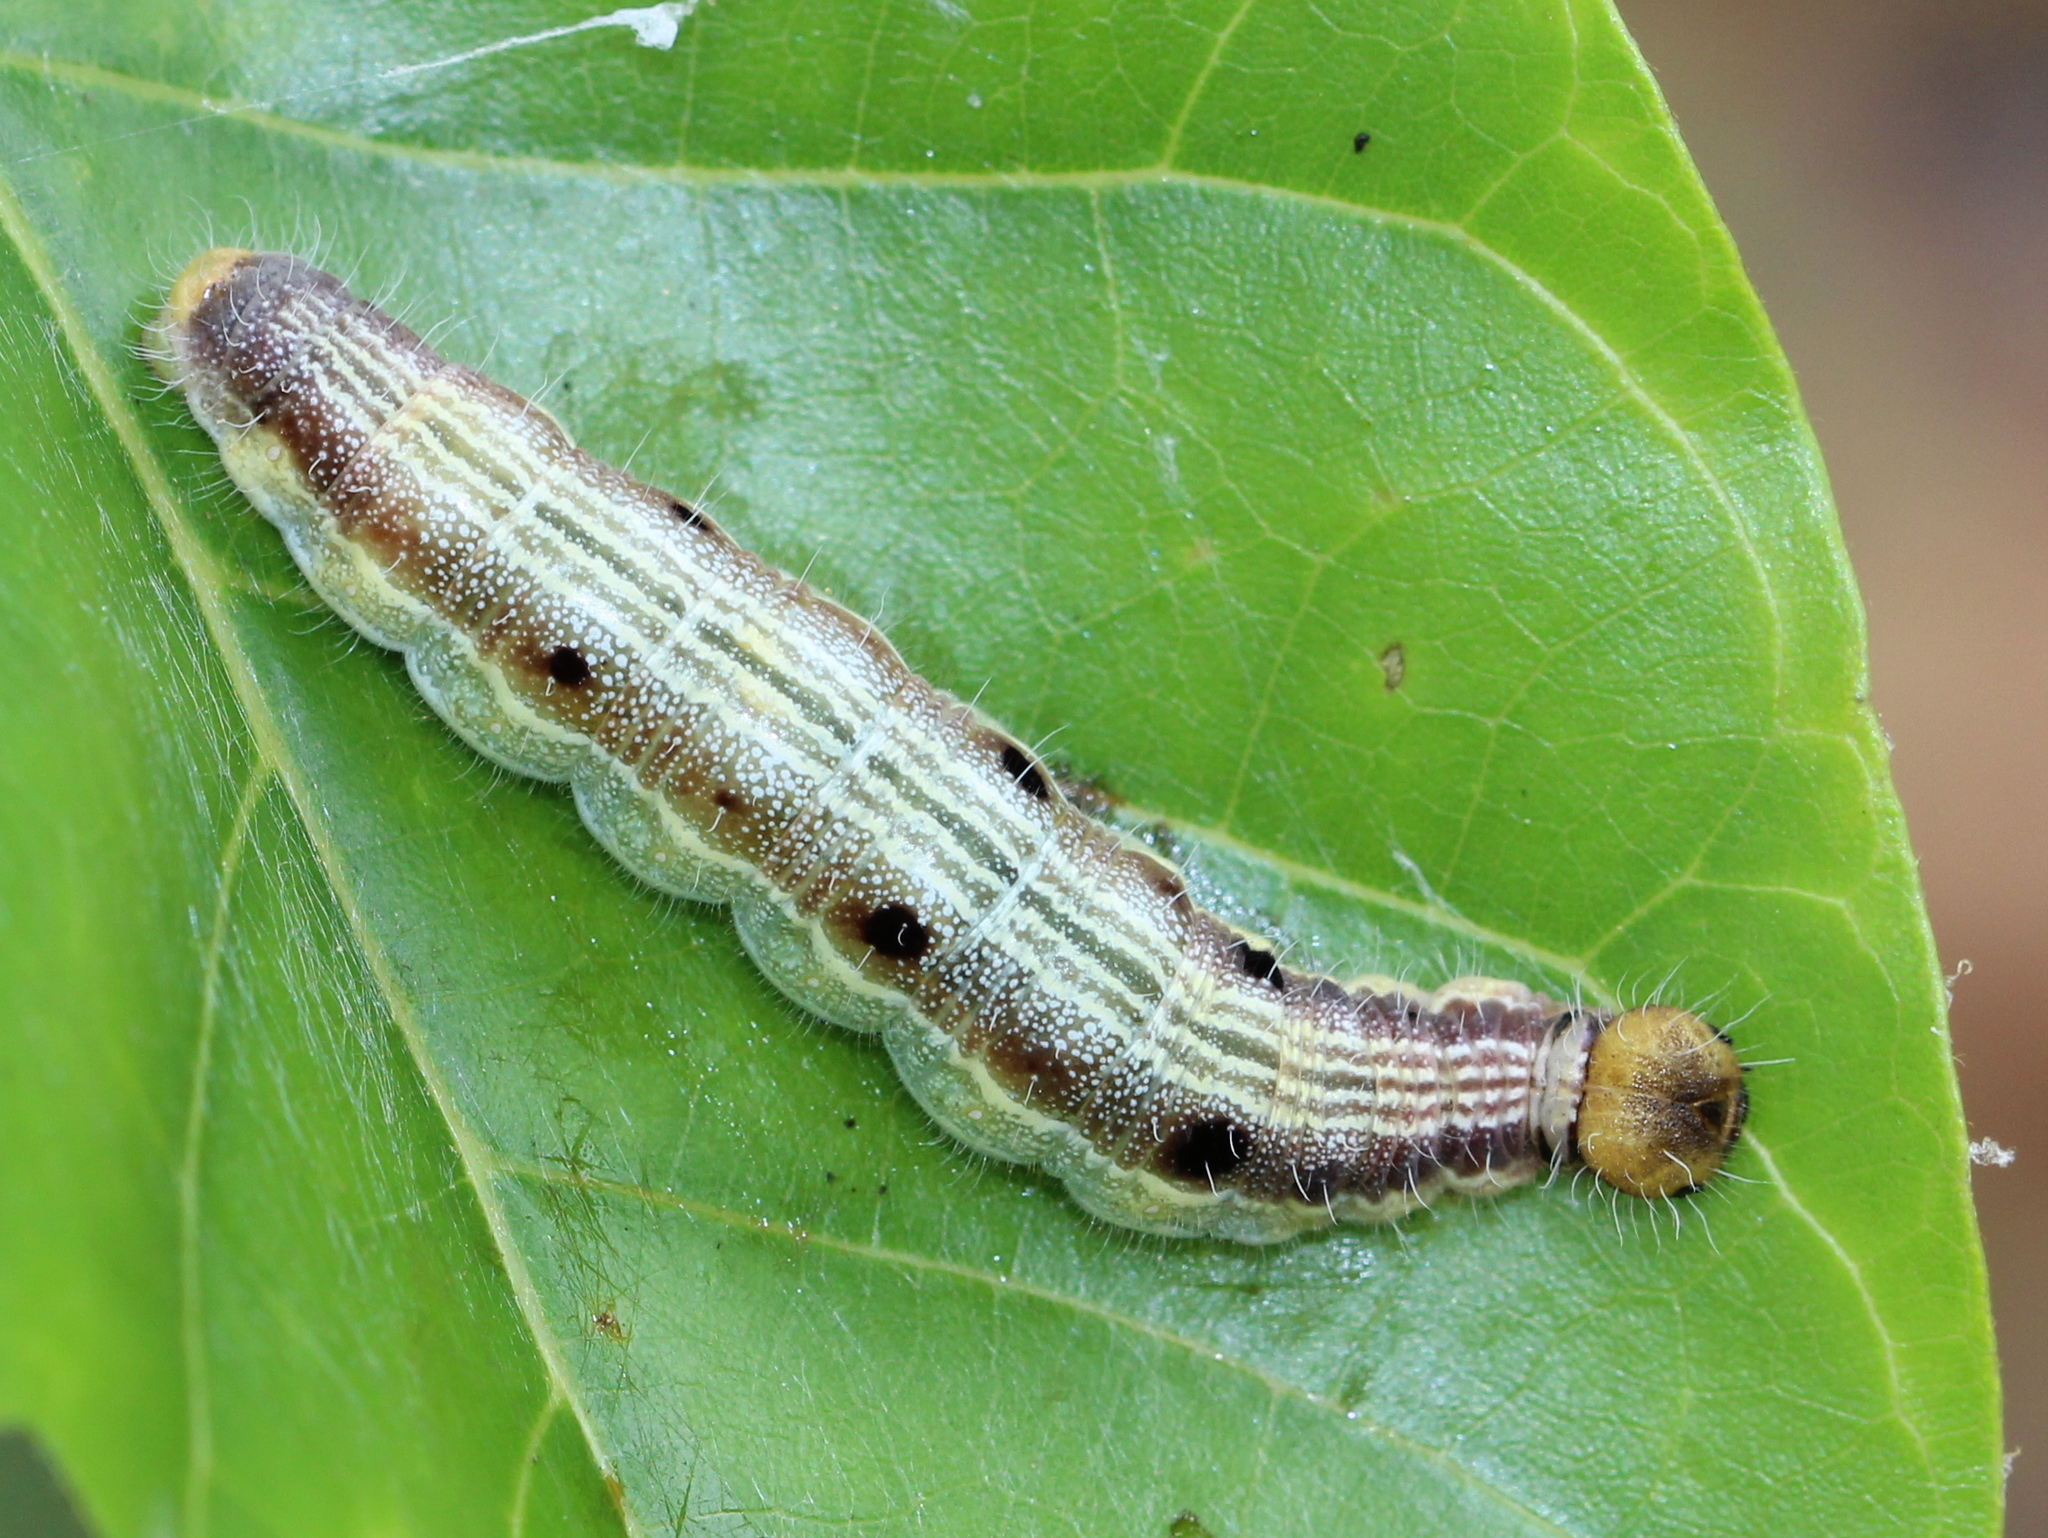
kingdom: Animalia
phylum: Arthropoda
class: Insecta
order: Lepidoptera
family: Hesperiidae
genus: Hasora
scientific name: Hasora chromus
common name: Common banded awl
